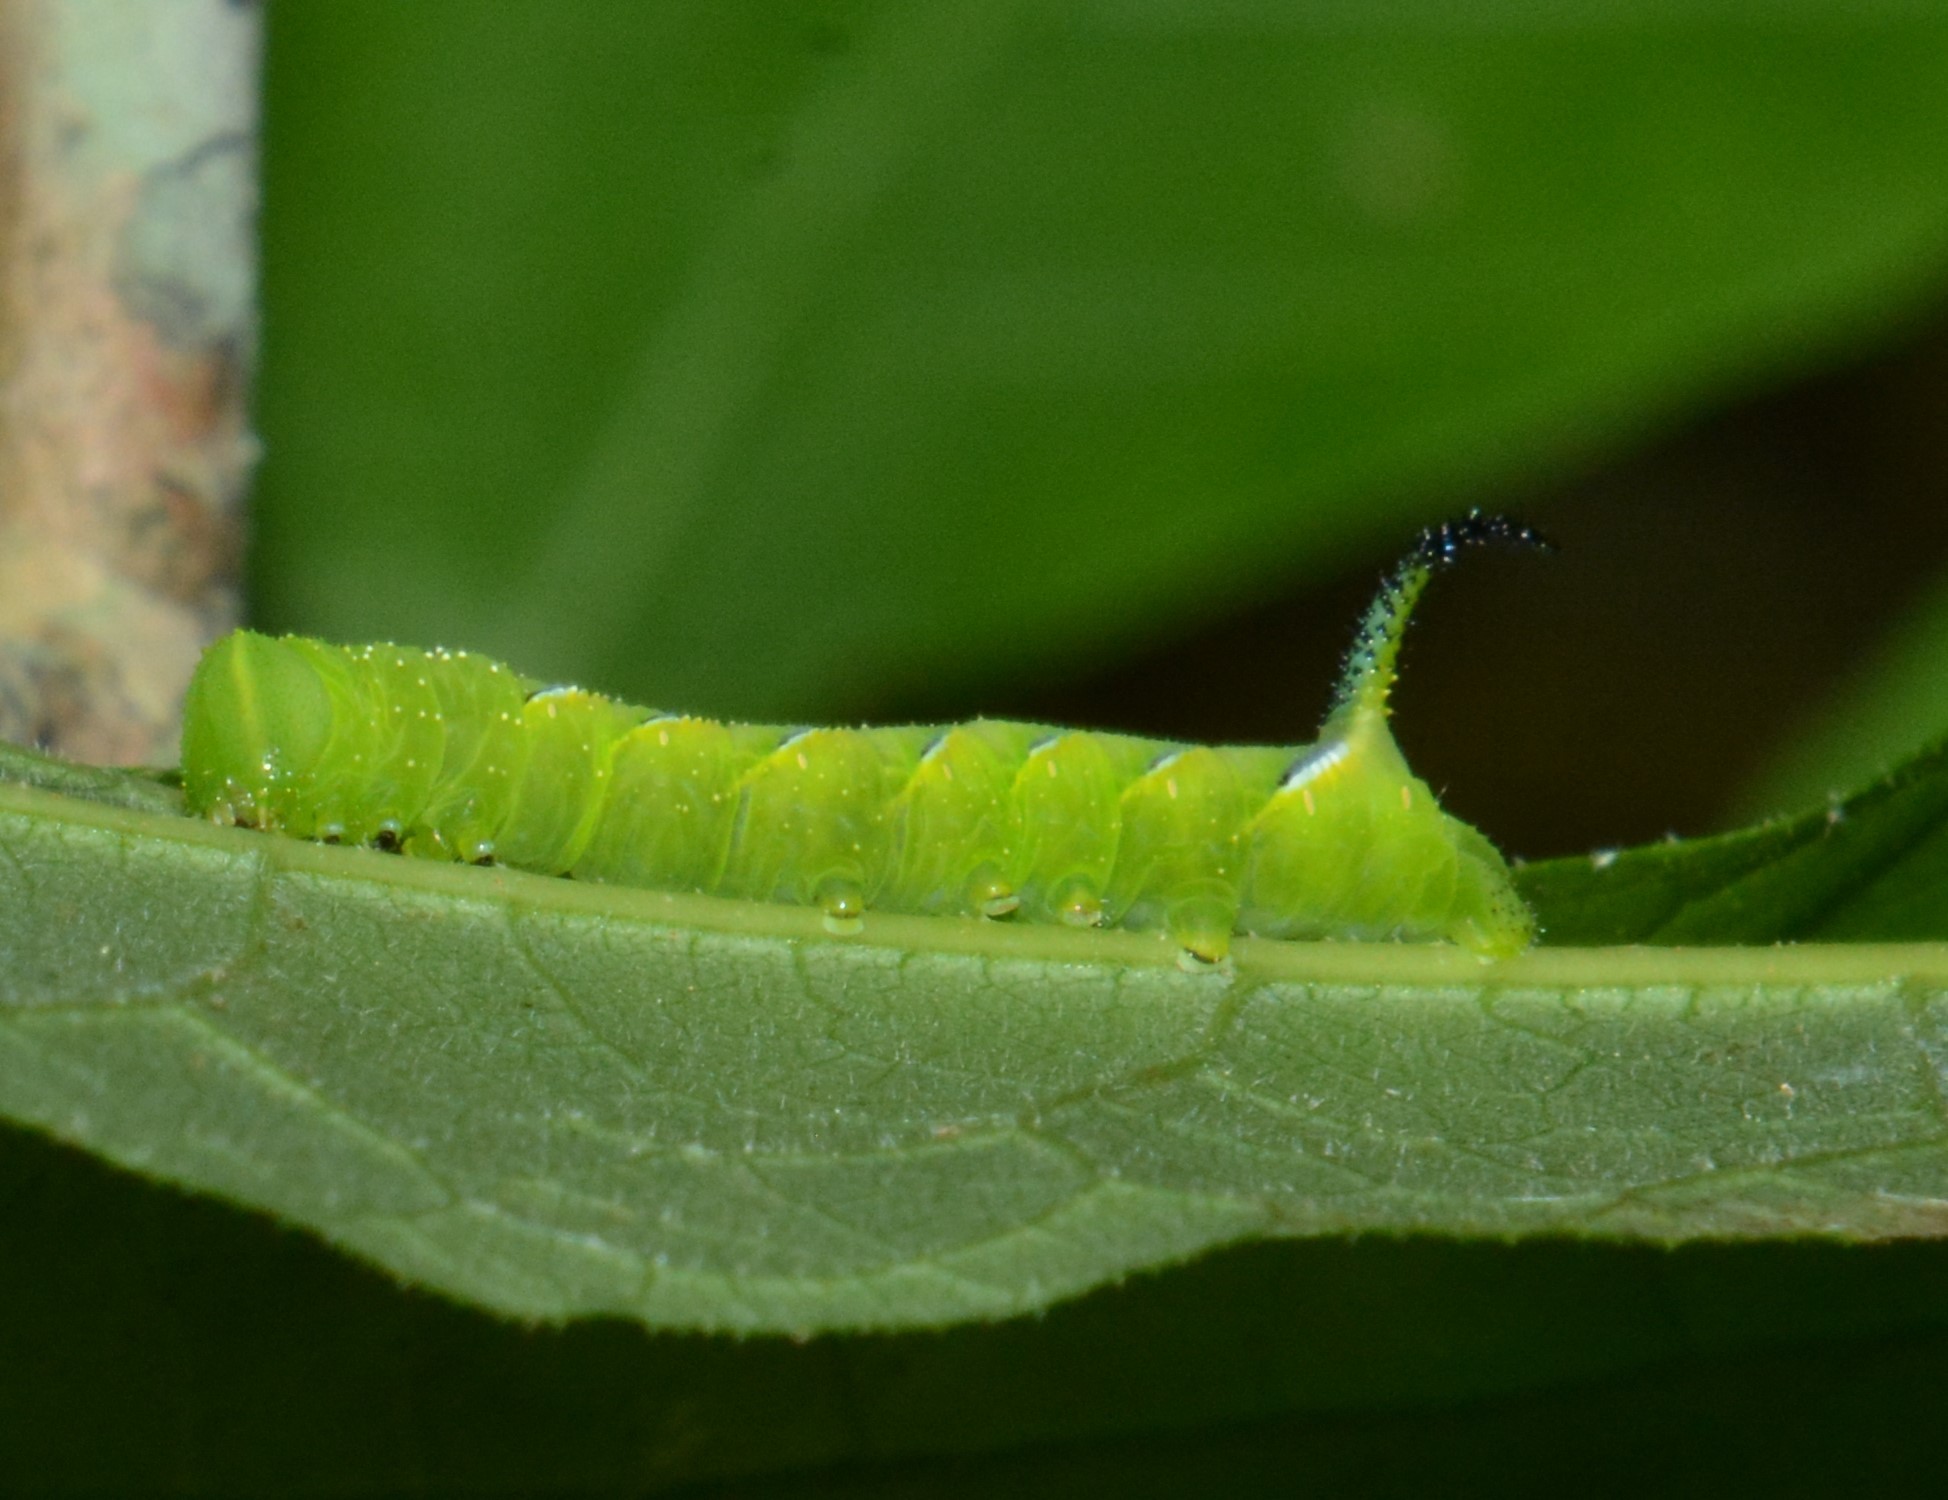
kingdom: Animalia
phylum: Arthropoda
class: Insecta
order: Lepidoptera
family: Sphingidae
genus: Sphinx
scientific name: Sphinx kalmiae
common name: Laurel sphinx
